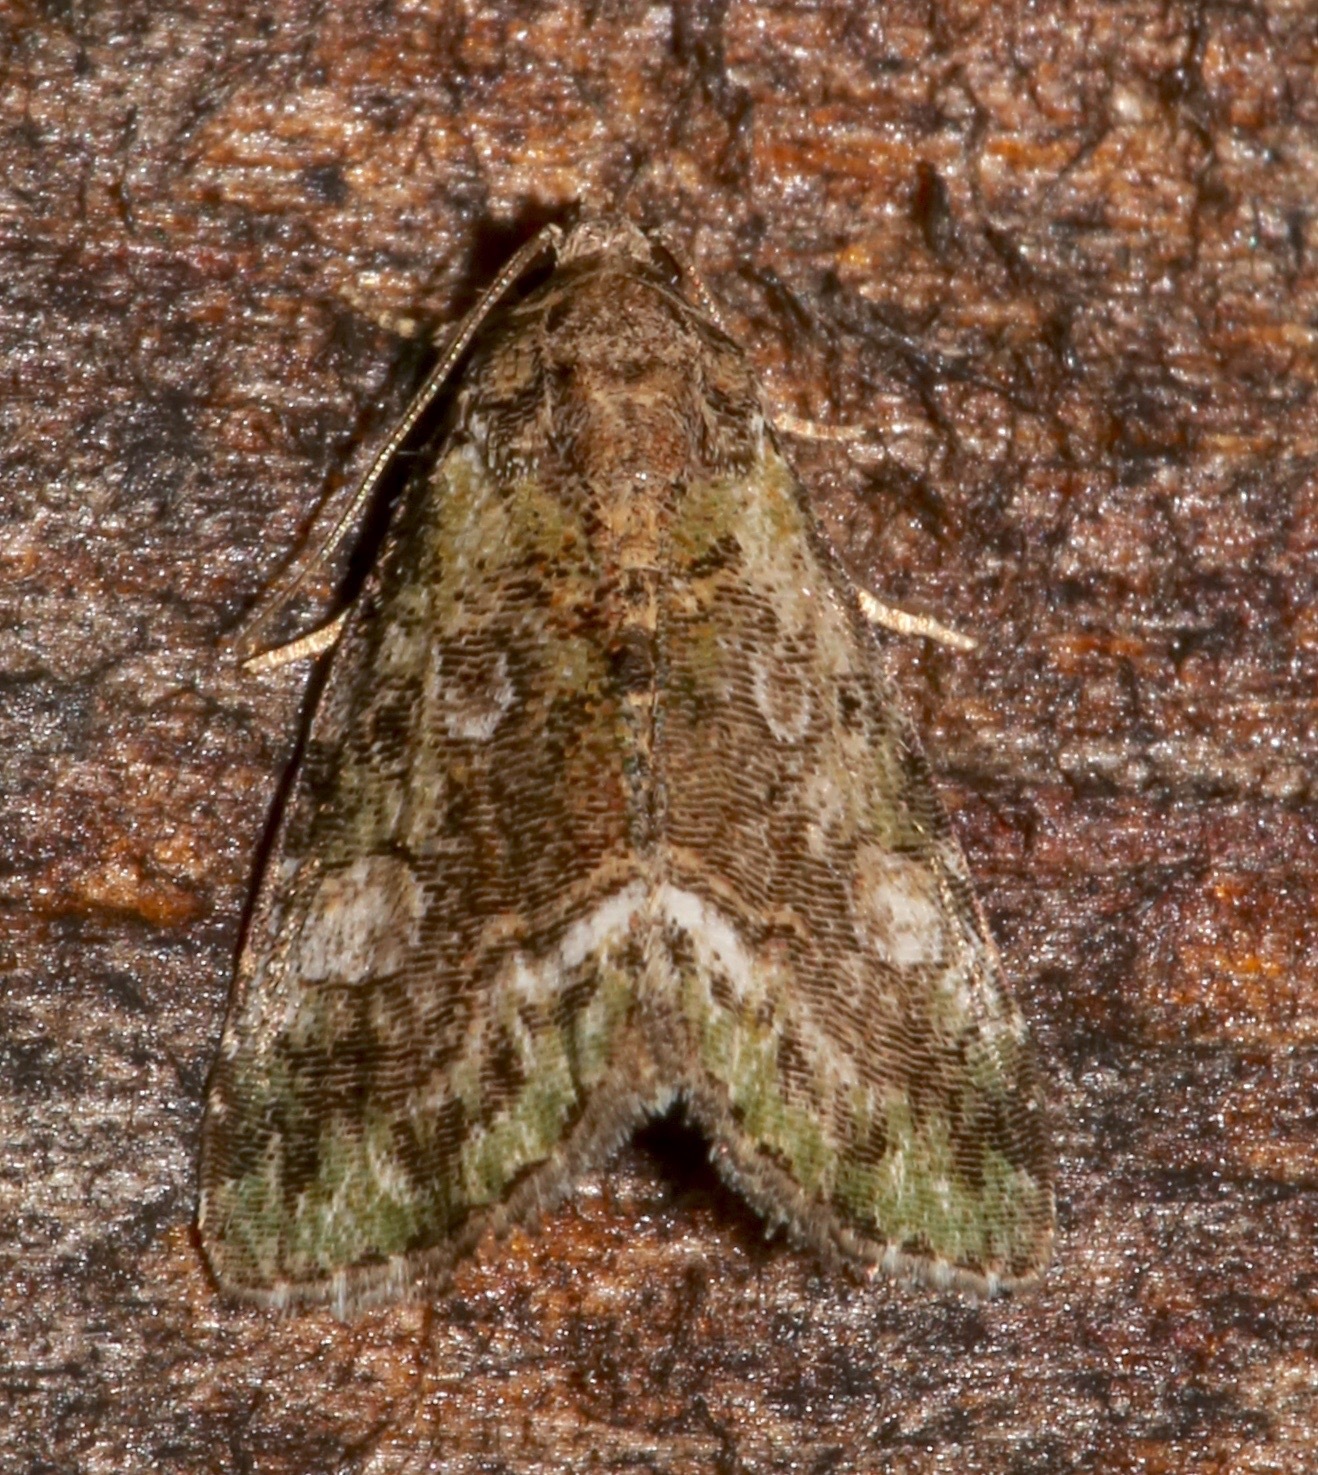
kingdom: Animalia
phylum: Arthropoda
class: Insecta
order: Lepidoptera
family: Noctuidae
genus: Lithacodia
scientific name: Lithacodia musta
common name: Small mossy glyph
